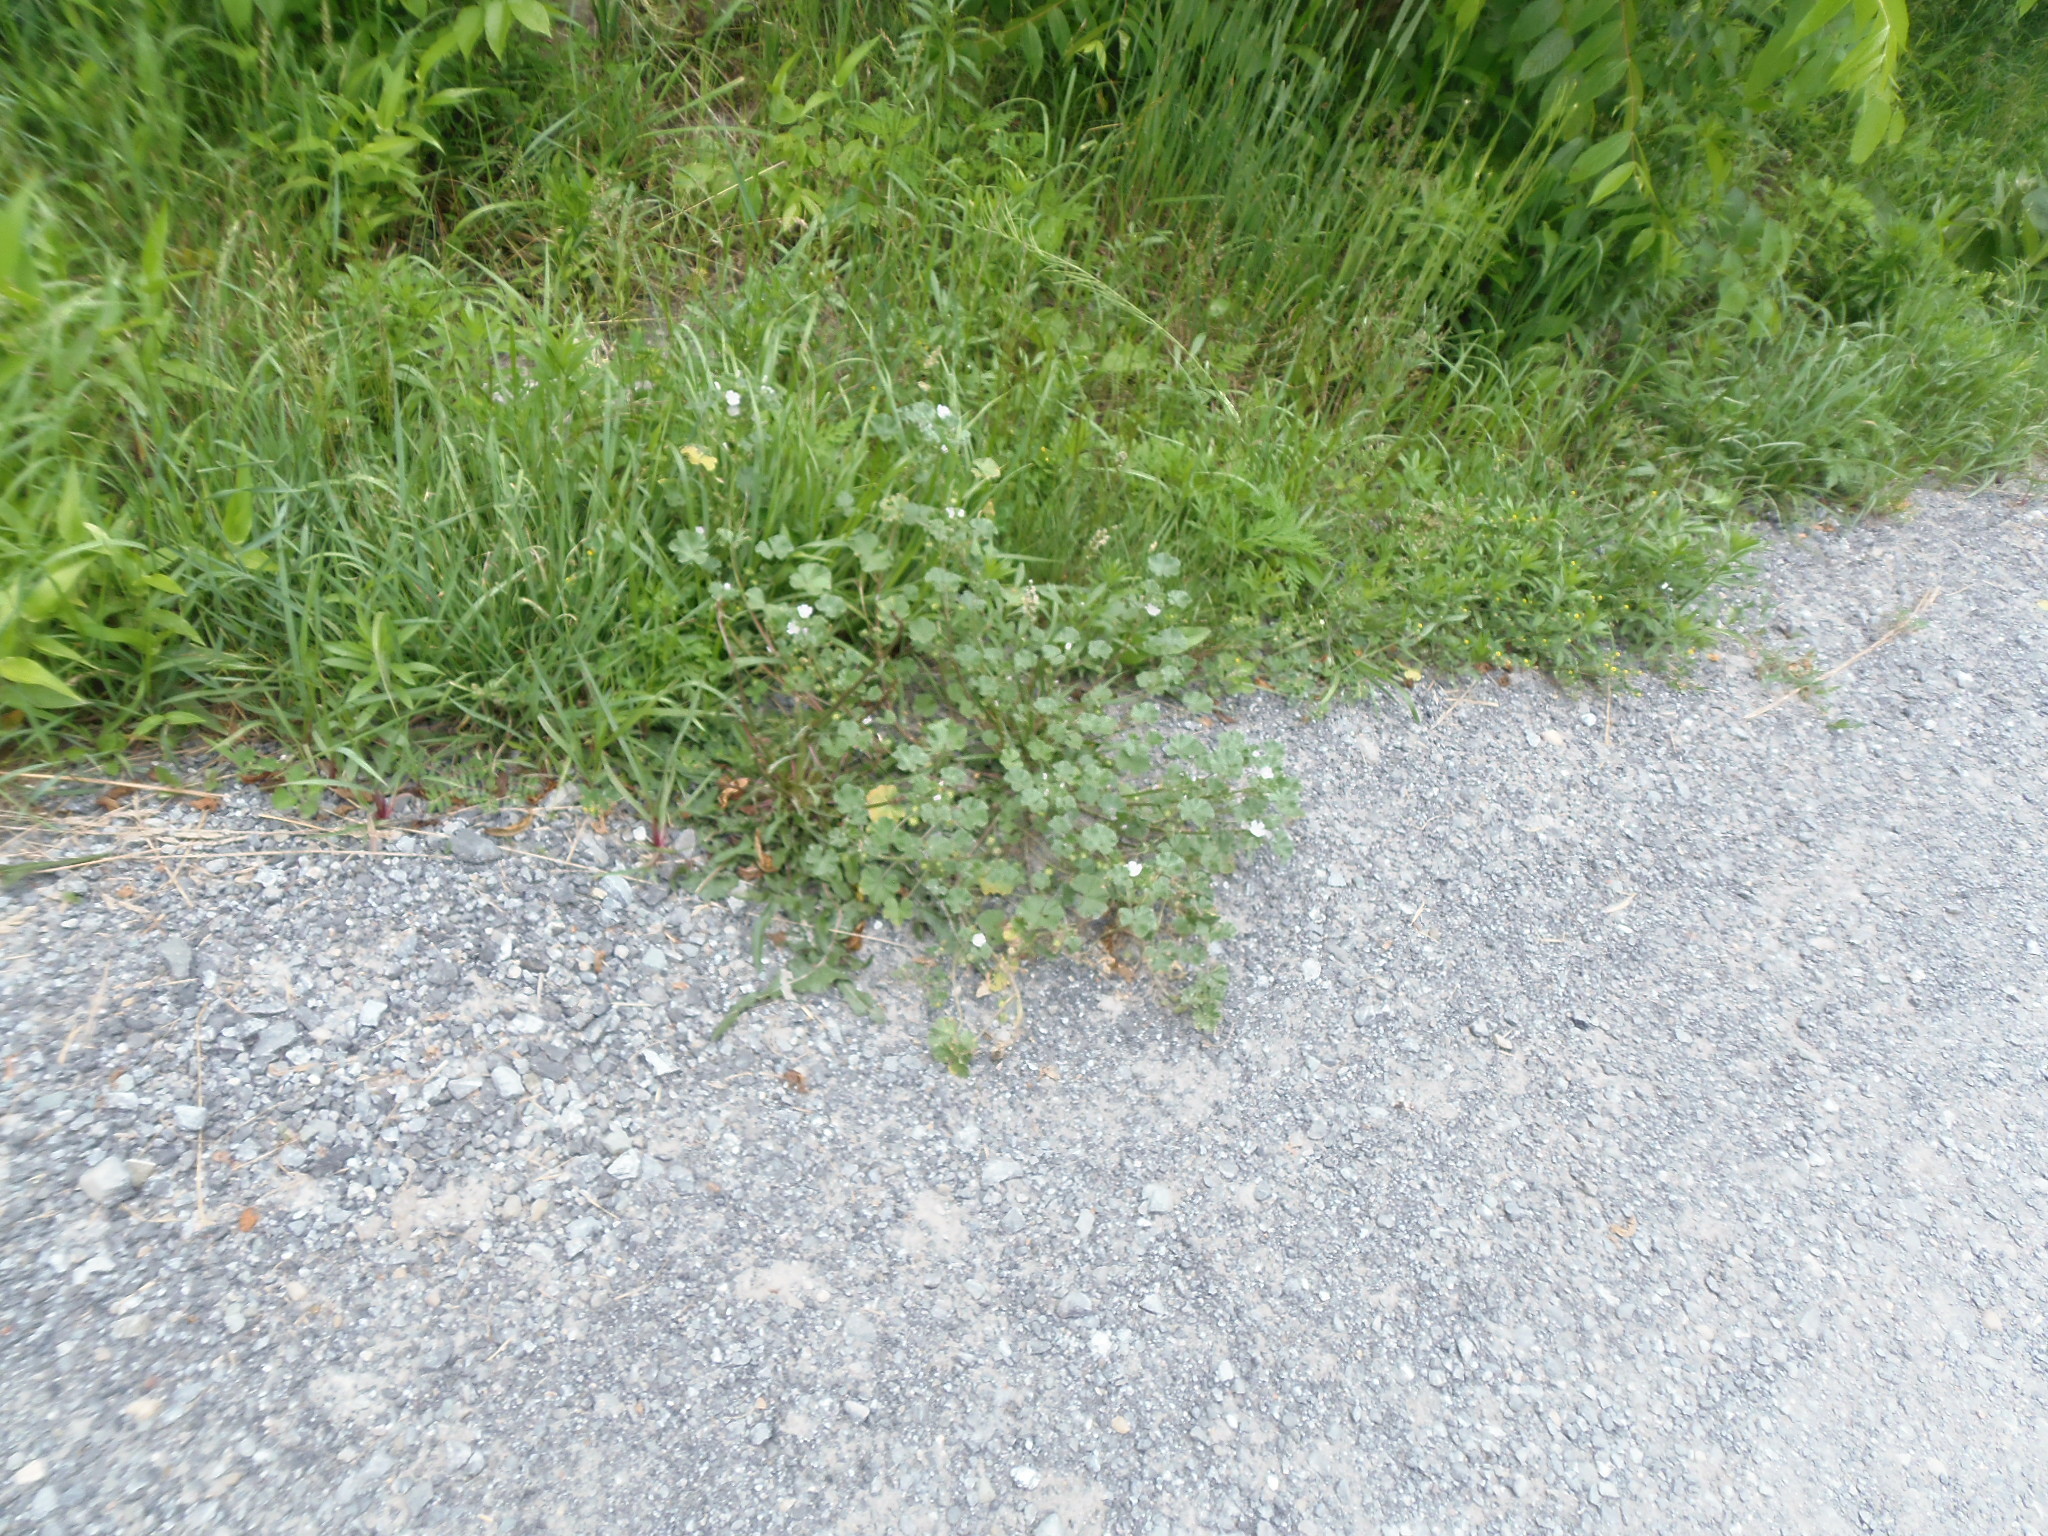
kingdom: Plantae
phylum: Tracheophyta
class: Magnoliopsida
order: Malvales
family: Malvaceae
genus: Malva
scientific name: Malva neglecta
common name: Common mallow
